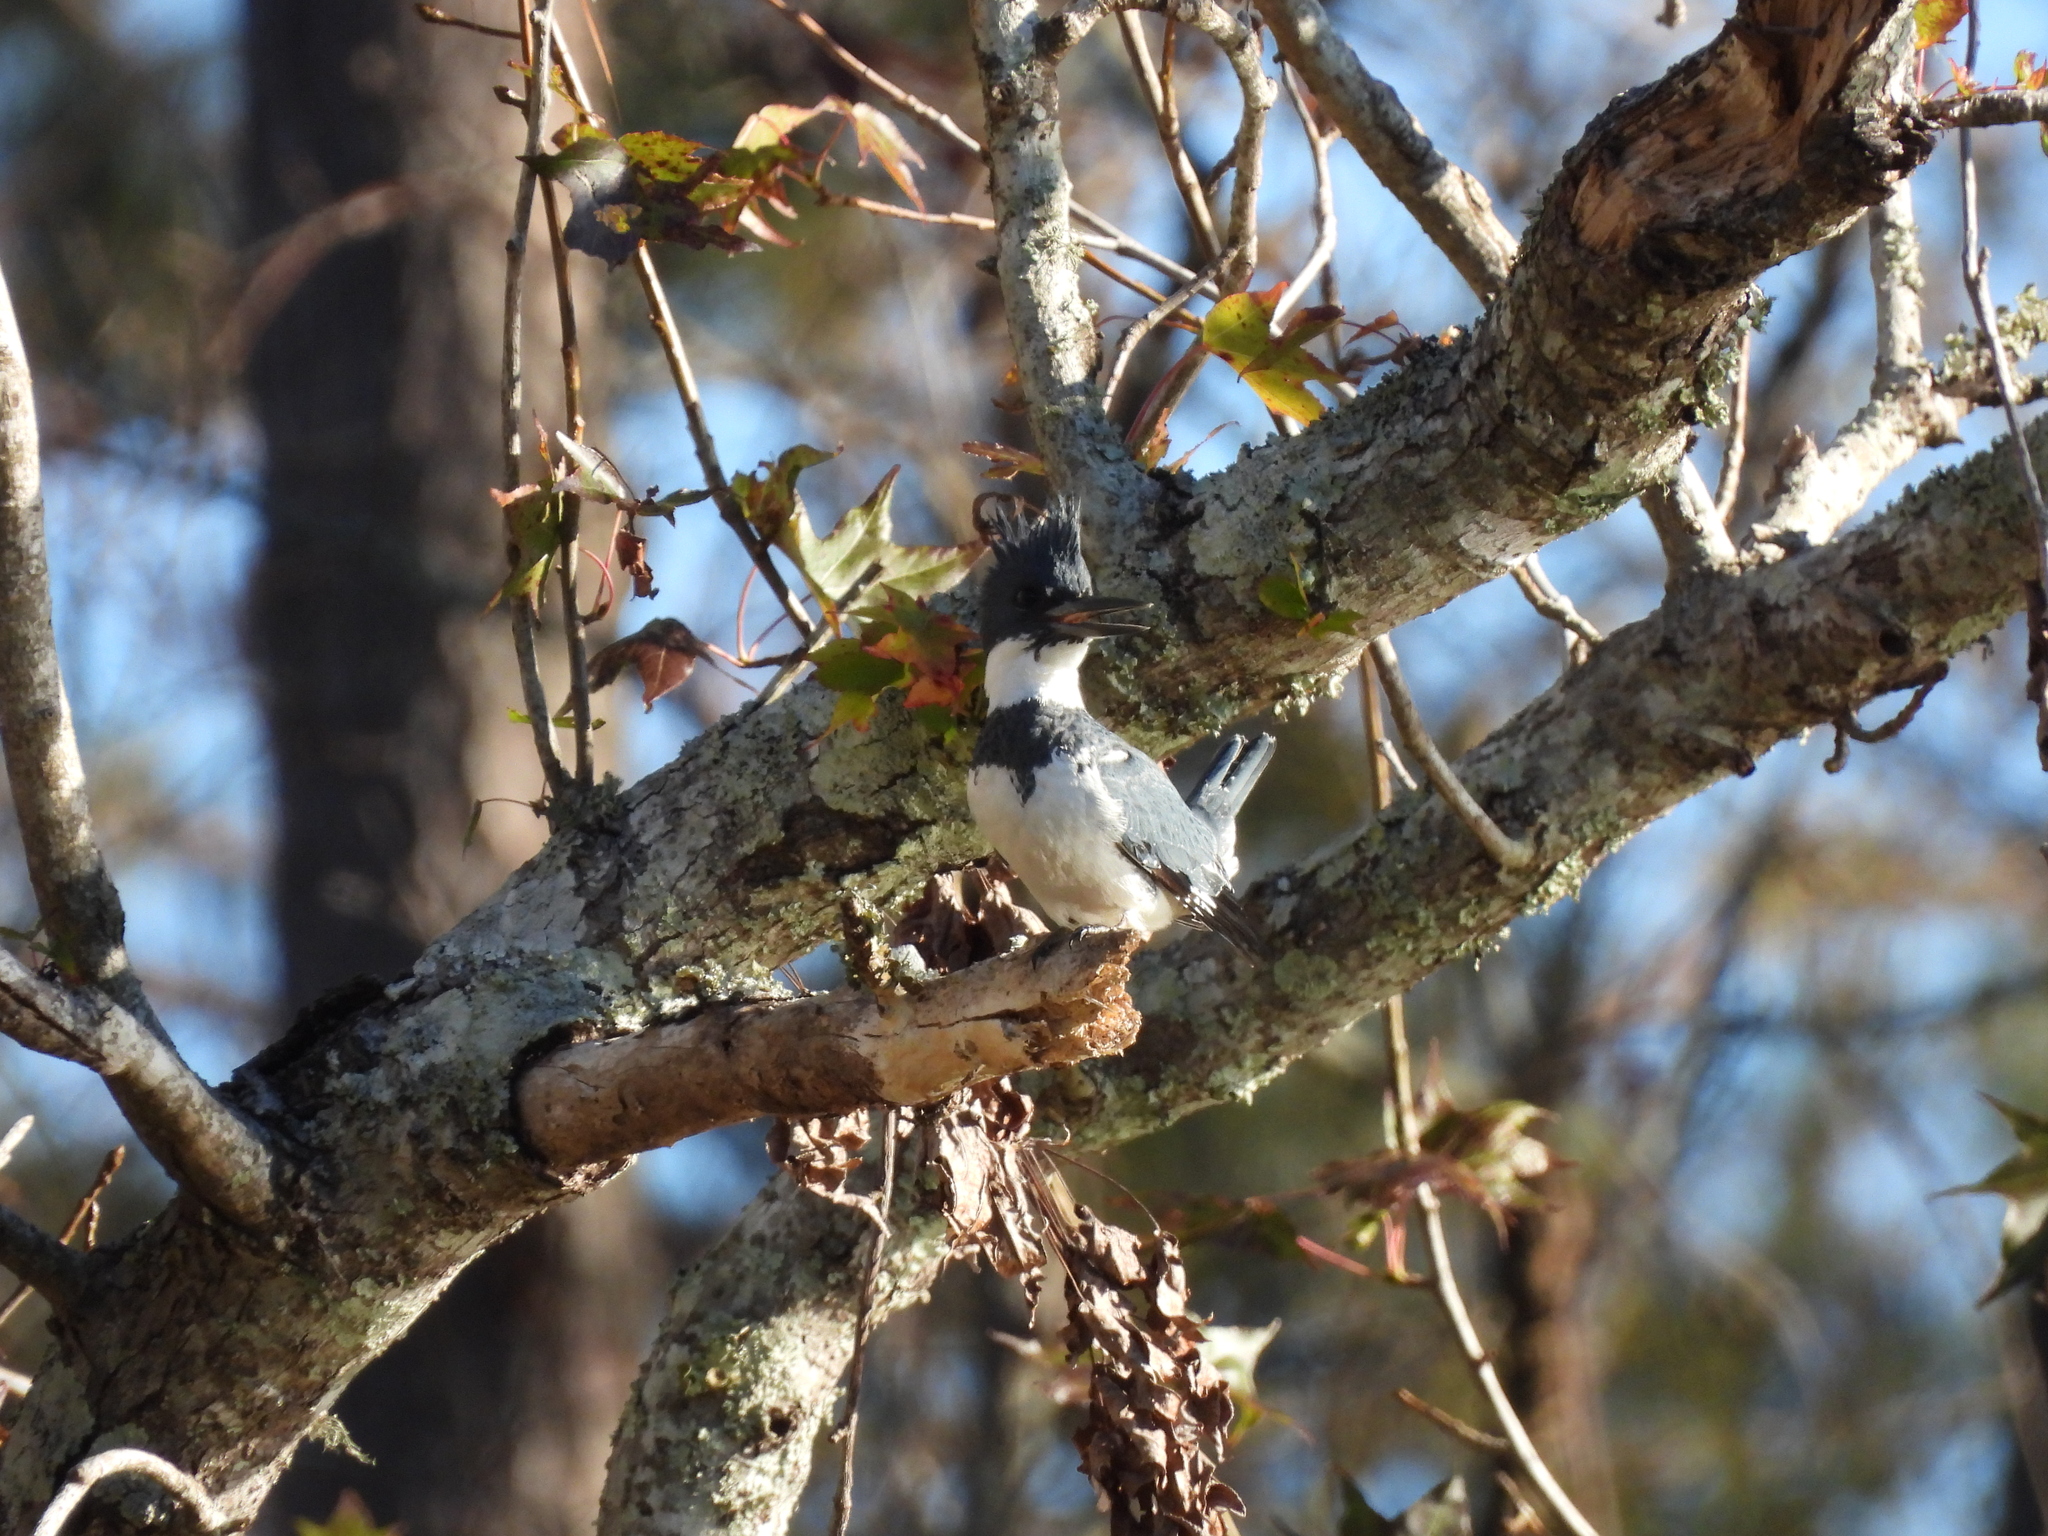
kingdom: Animalia
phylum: Chordata
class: Aves
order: Coraciiformes
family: Alcedinidae
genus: Megaceryle
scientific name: Megaceryle alcyon
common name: Belted kingfisher
